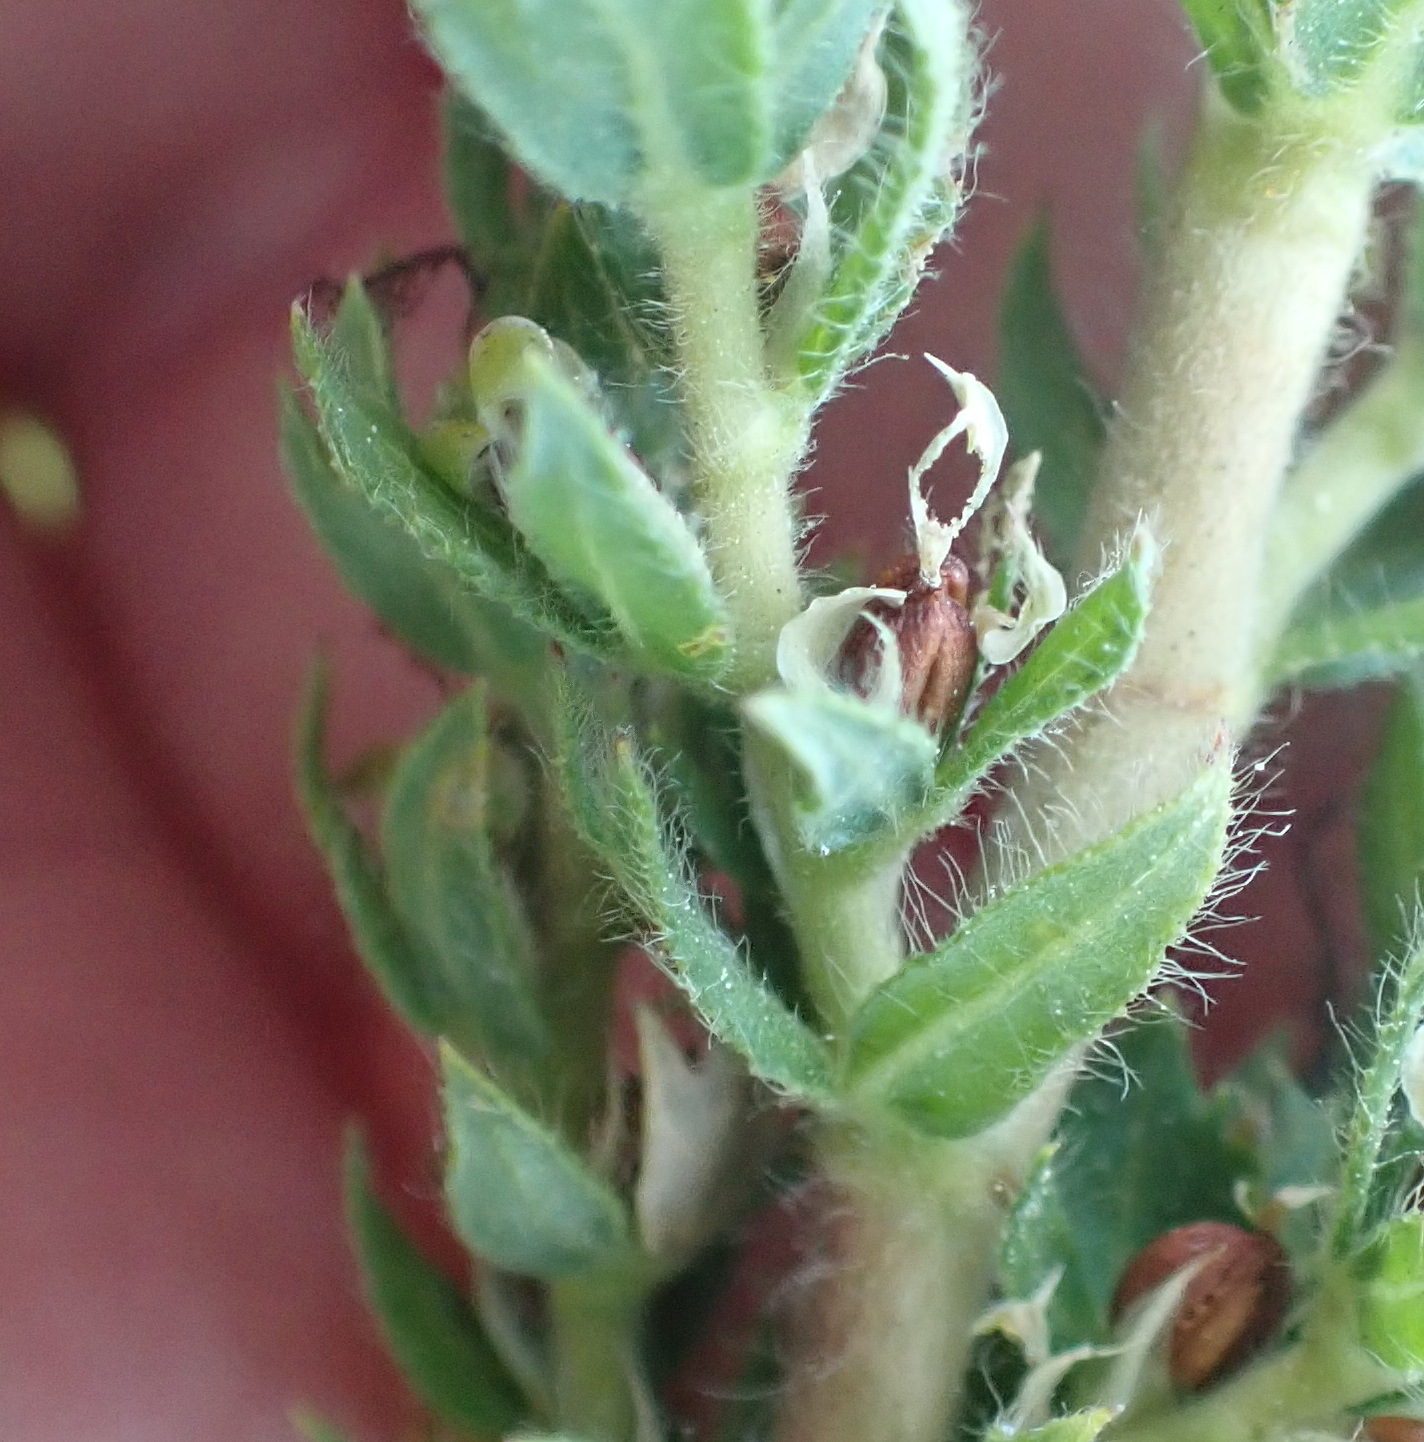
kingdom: Plantae
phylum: Tracheophyta
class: Magnoliopsida
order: Rosales
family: Rosaceae
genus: Cliffortia
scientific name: Cliffortia polygonifolia
